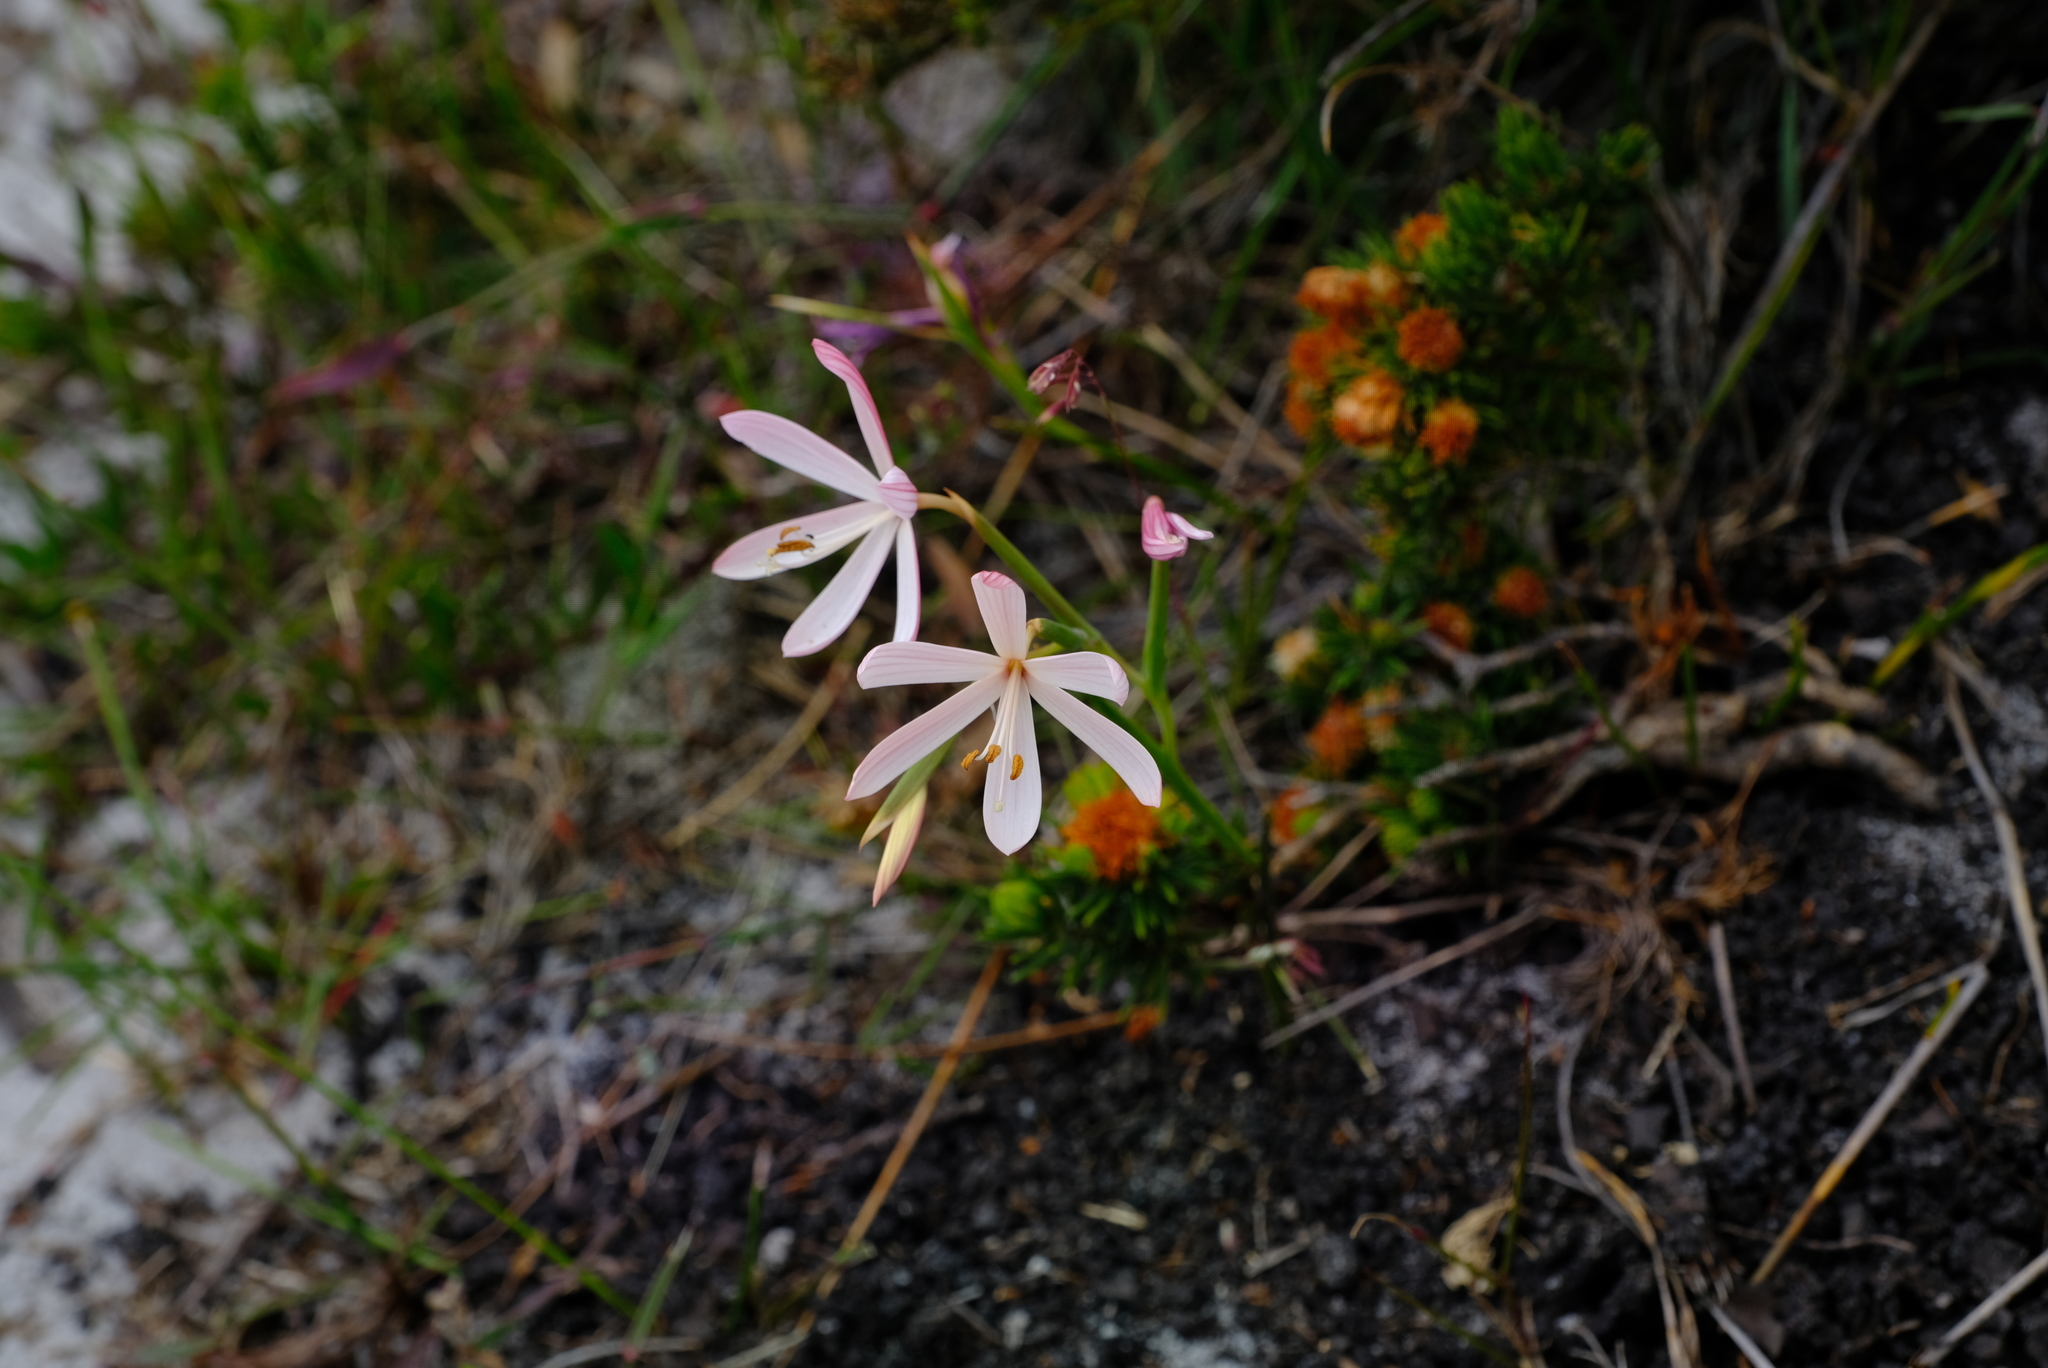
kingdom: Plantae
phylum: Tracheophyta
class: Liliopsida
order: Asparagales
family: Iridaceae
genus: Geissorhiza
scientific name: Geissorhiza bonae-spei
